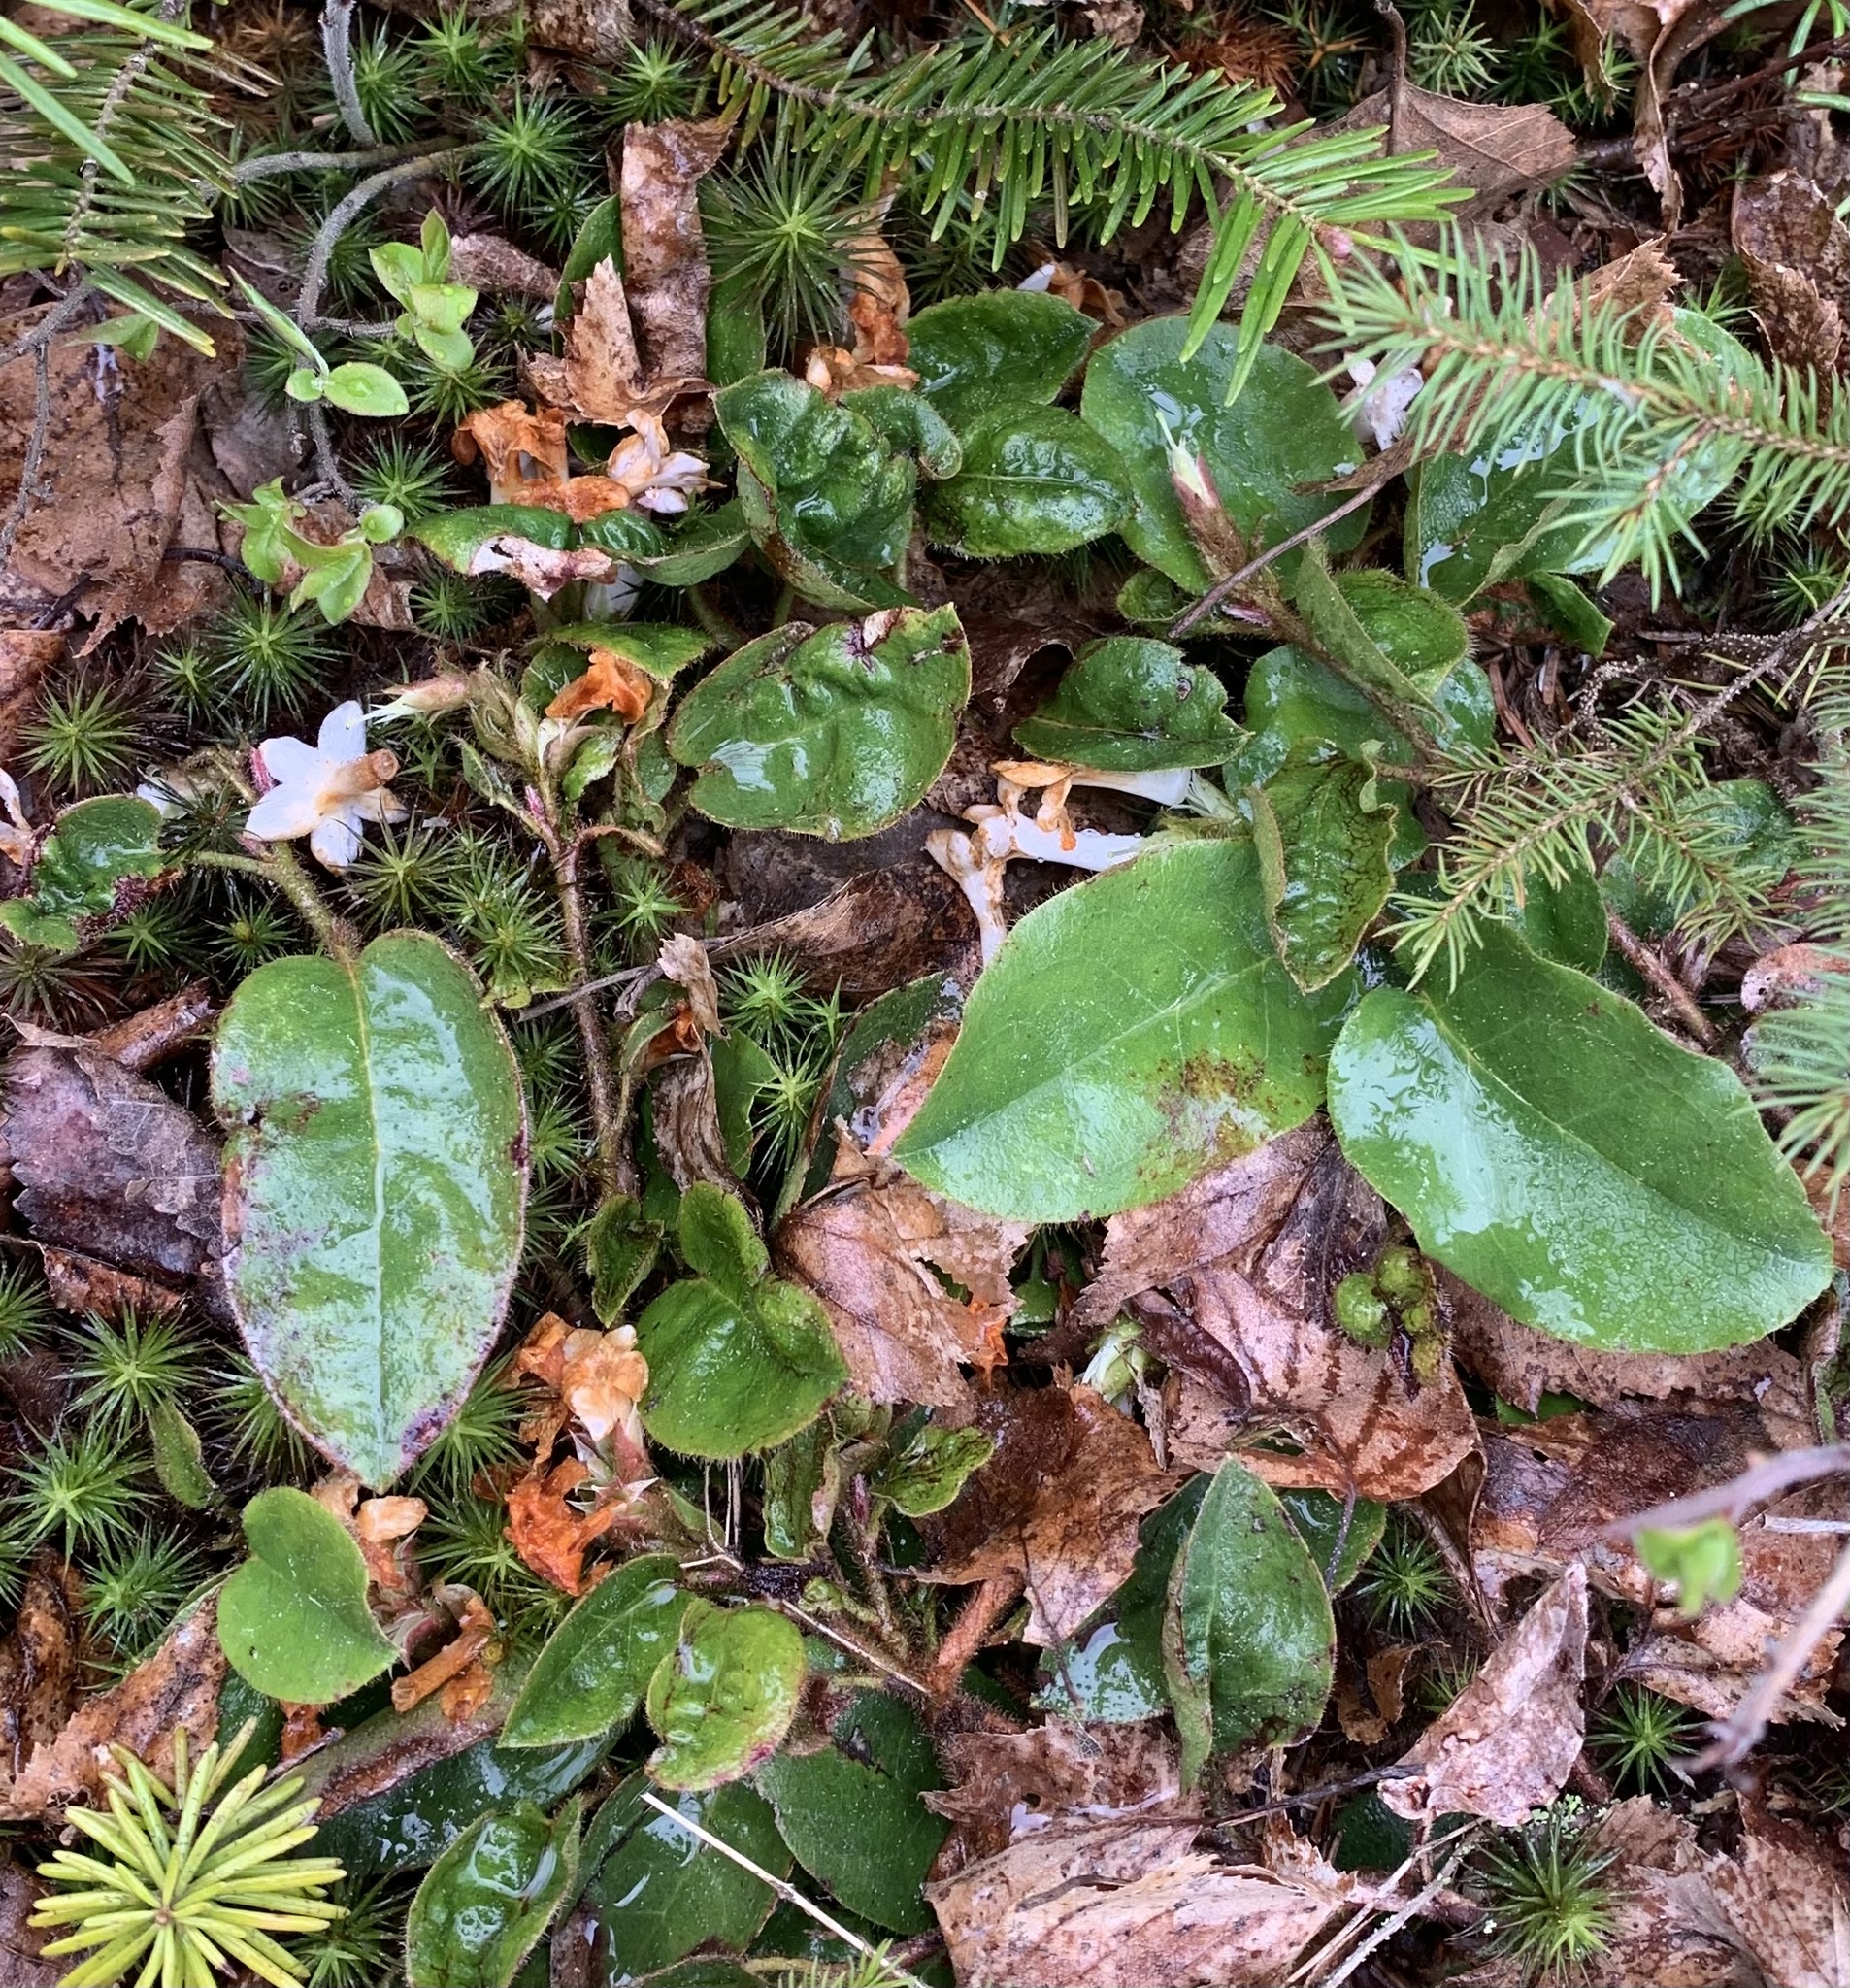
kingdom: Plantae
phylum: Tracheophyta
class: Magnoliopsida
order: Ericales
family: Ericaceae
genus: Epigaea
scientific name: Epigaea repens
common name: Gravelroot
